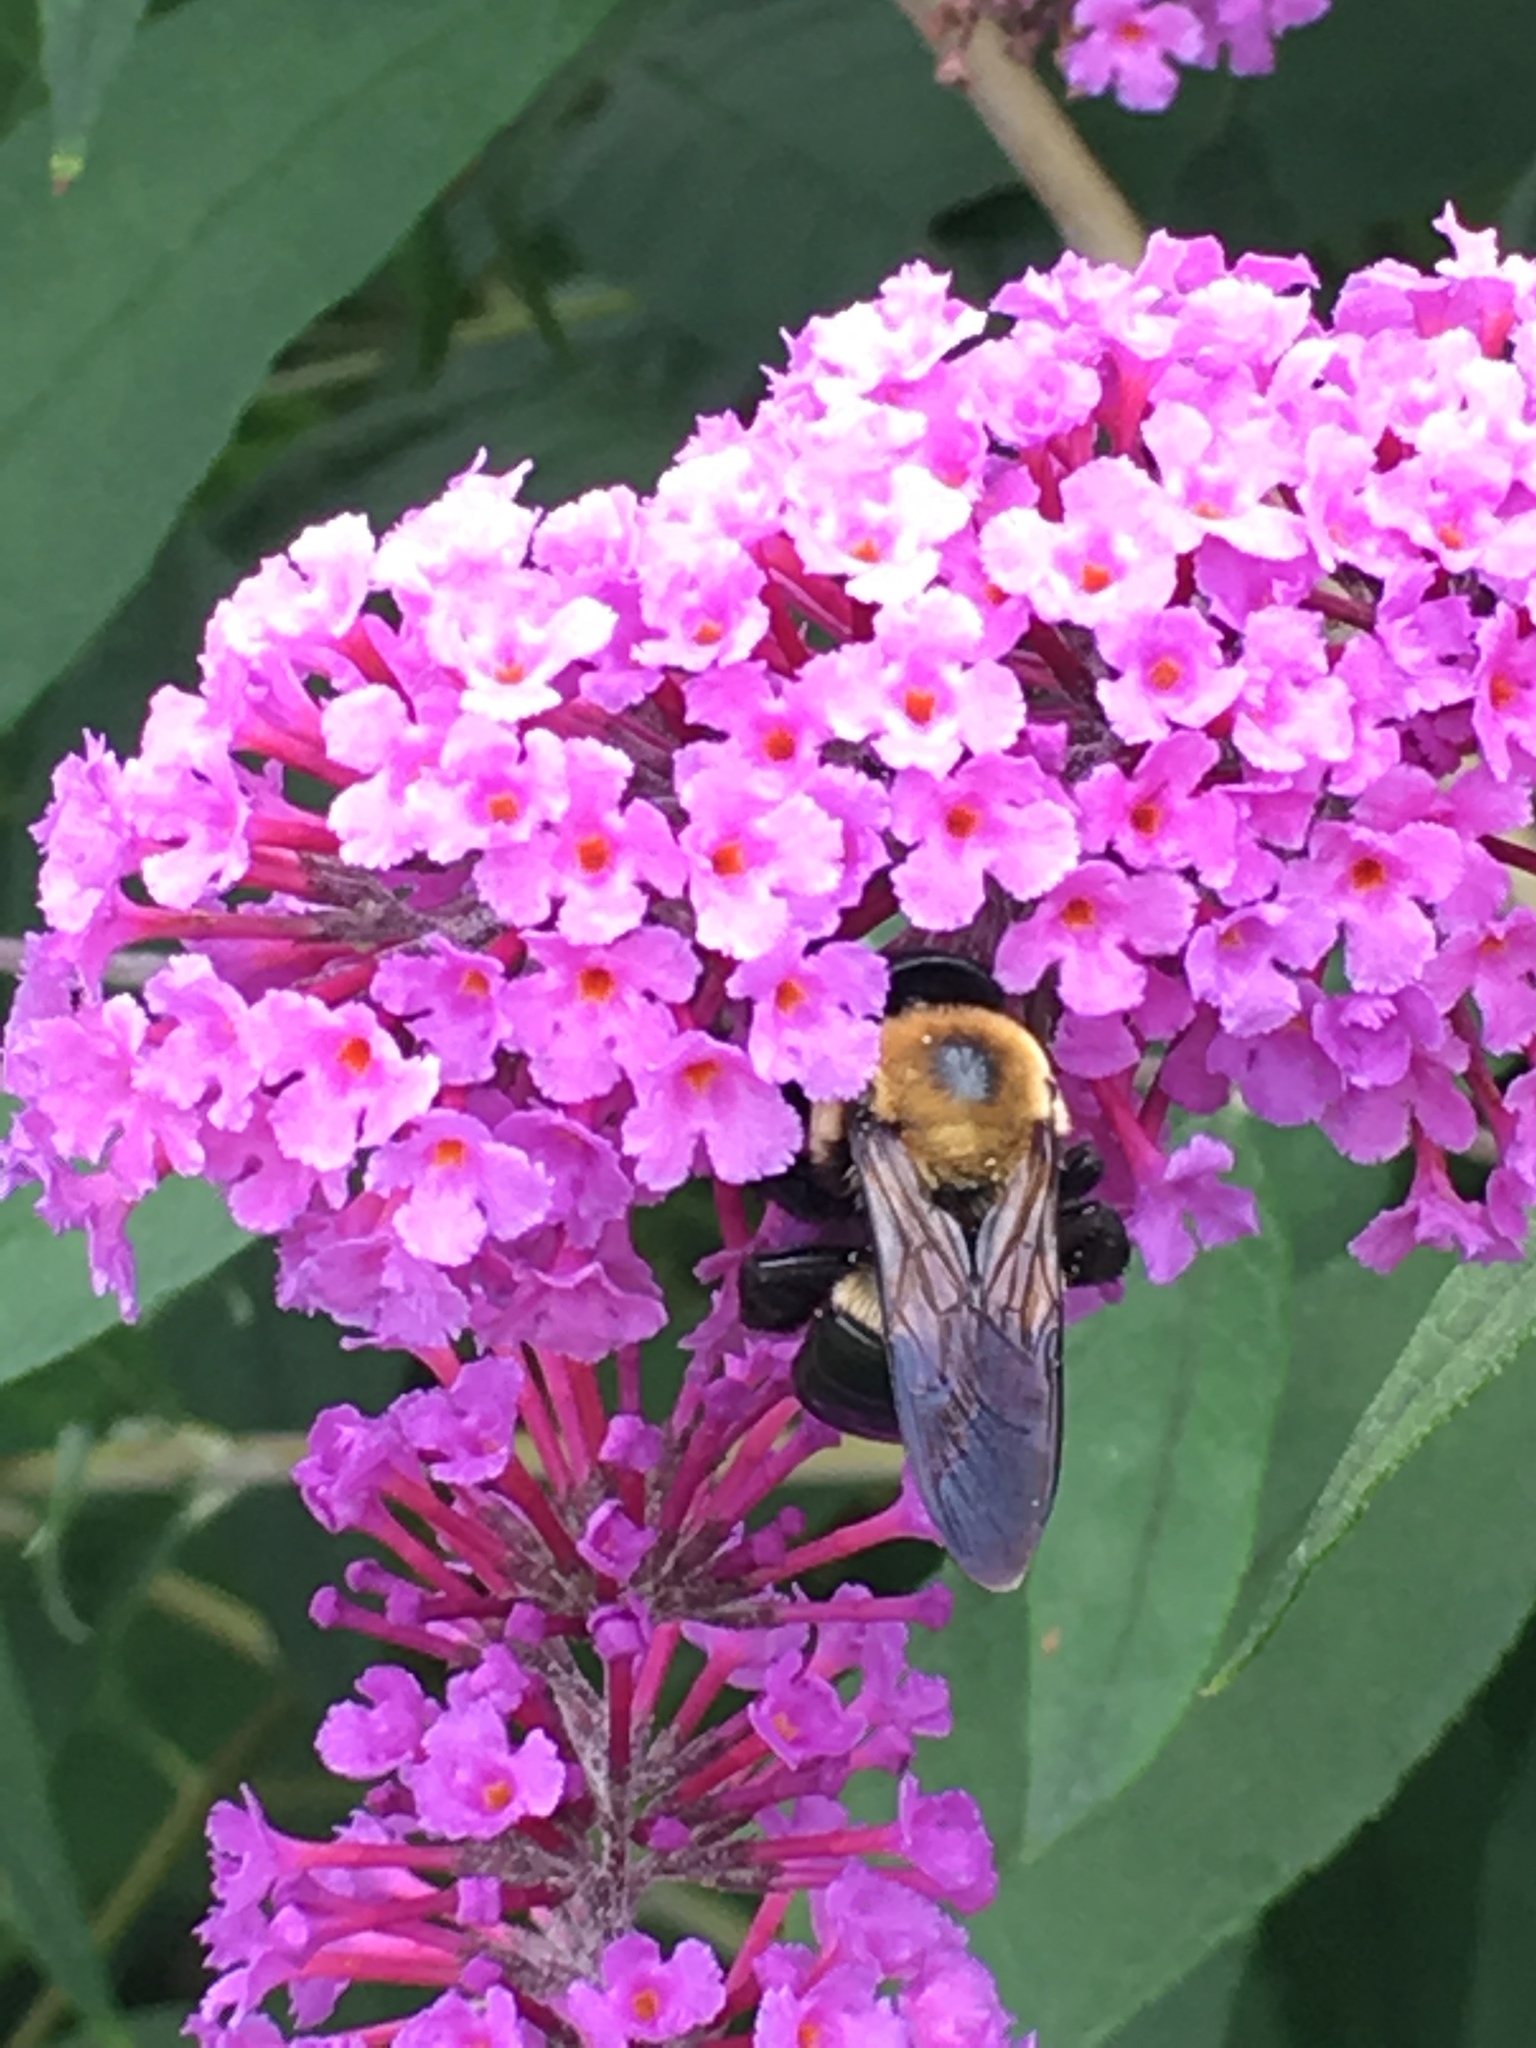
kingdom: Animalia
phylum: Arthropoda
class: Insecta
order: Hymenoptera
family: Apidae
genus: Xylocopa
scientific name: Xylocopa virginica
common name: Carpenter bee
